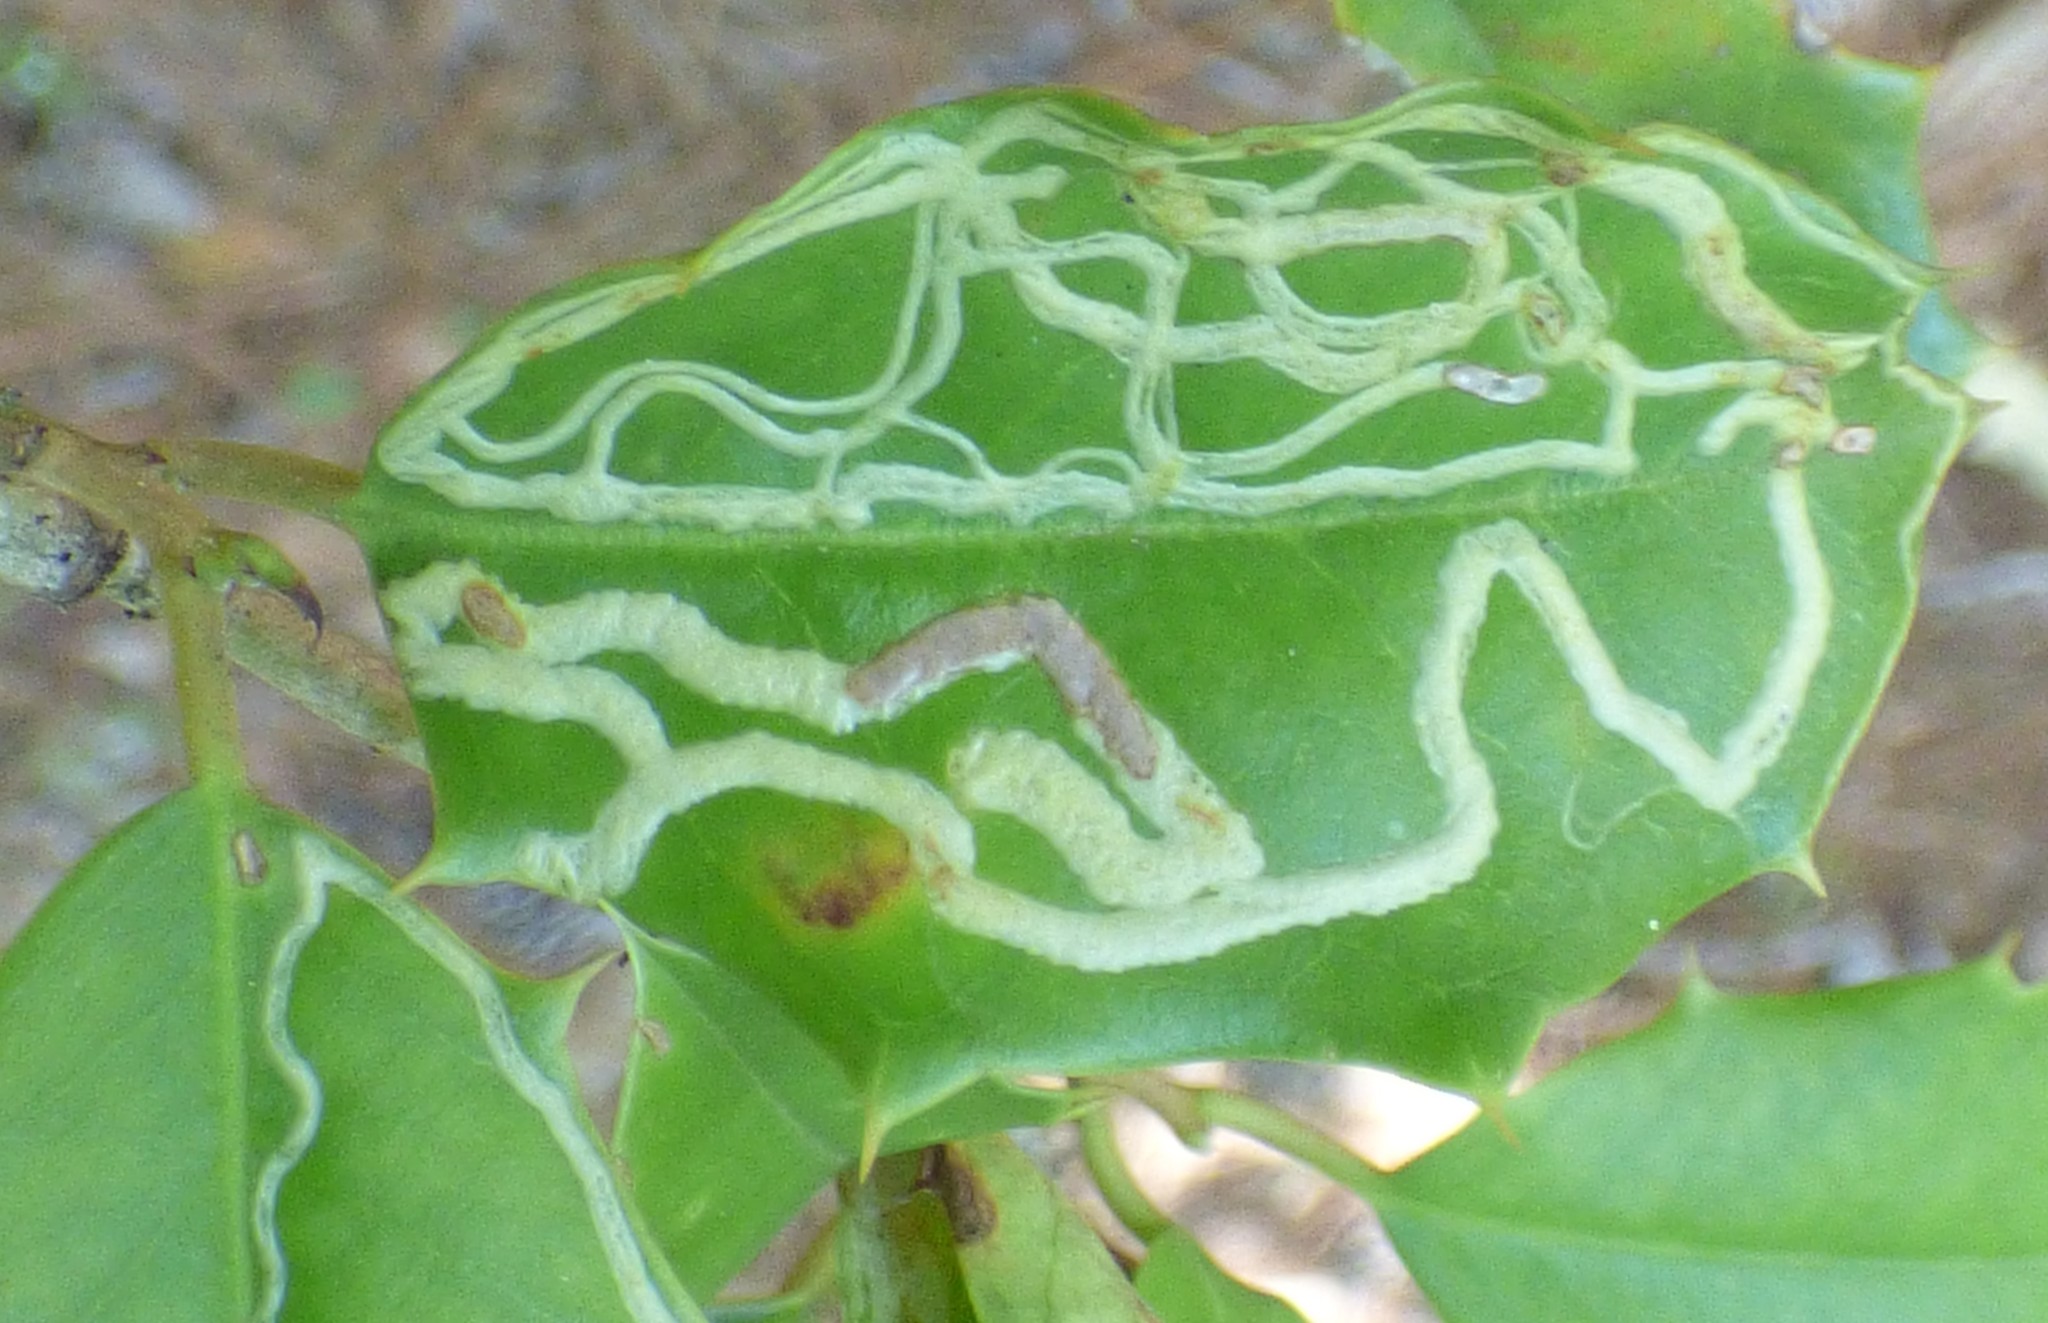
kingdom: Animalia
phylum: Arthropoda
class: Insecta
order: Diptera
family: Agromyzidae
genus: Phytomyza
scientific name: Phytomyza opacae
